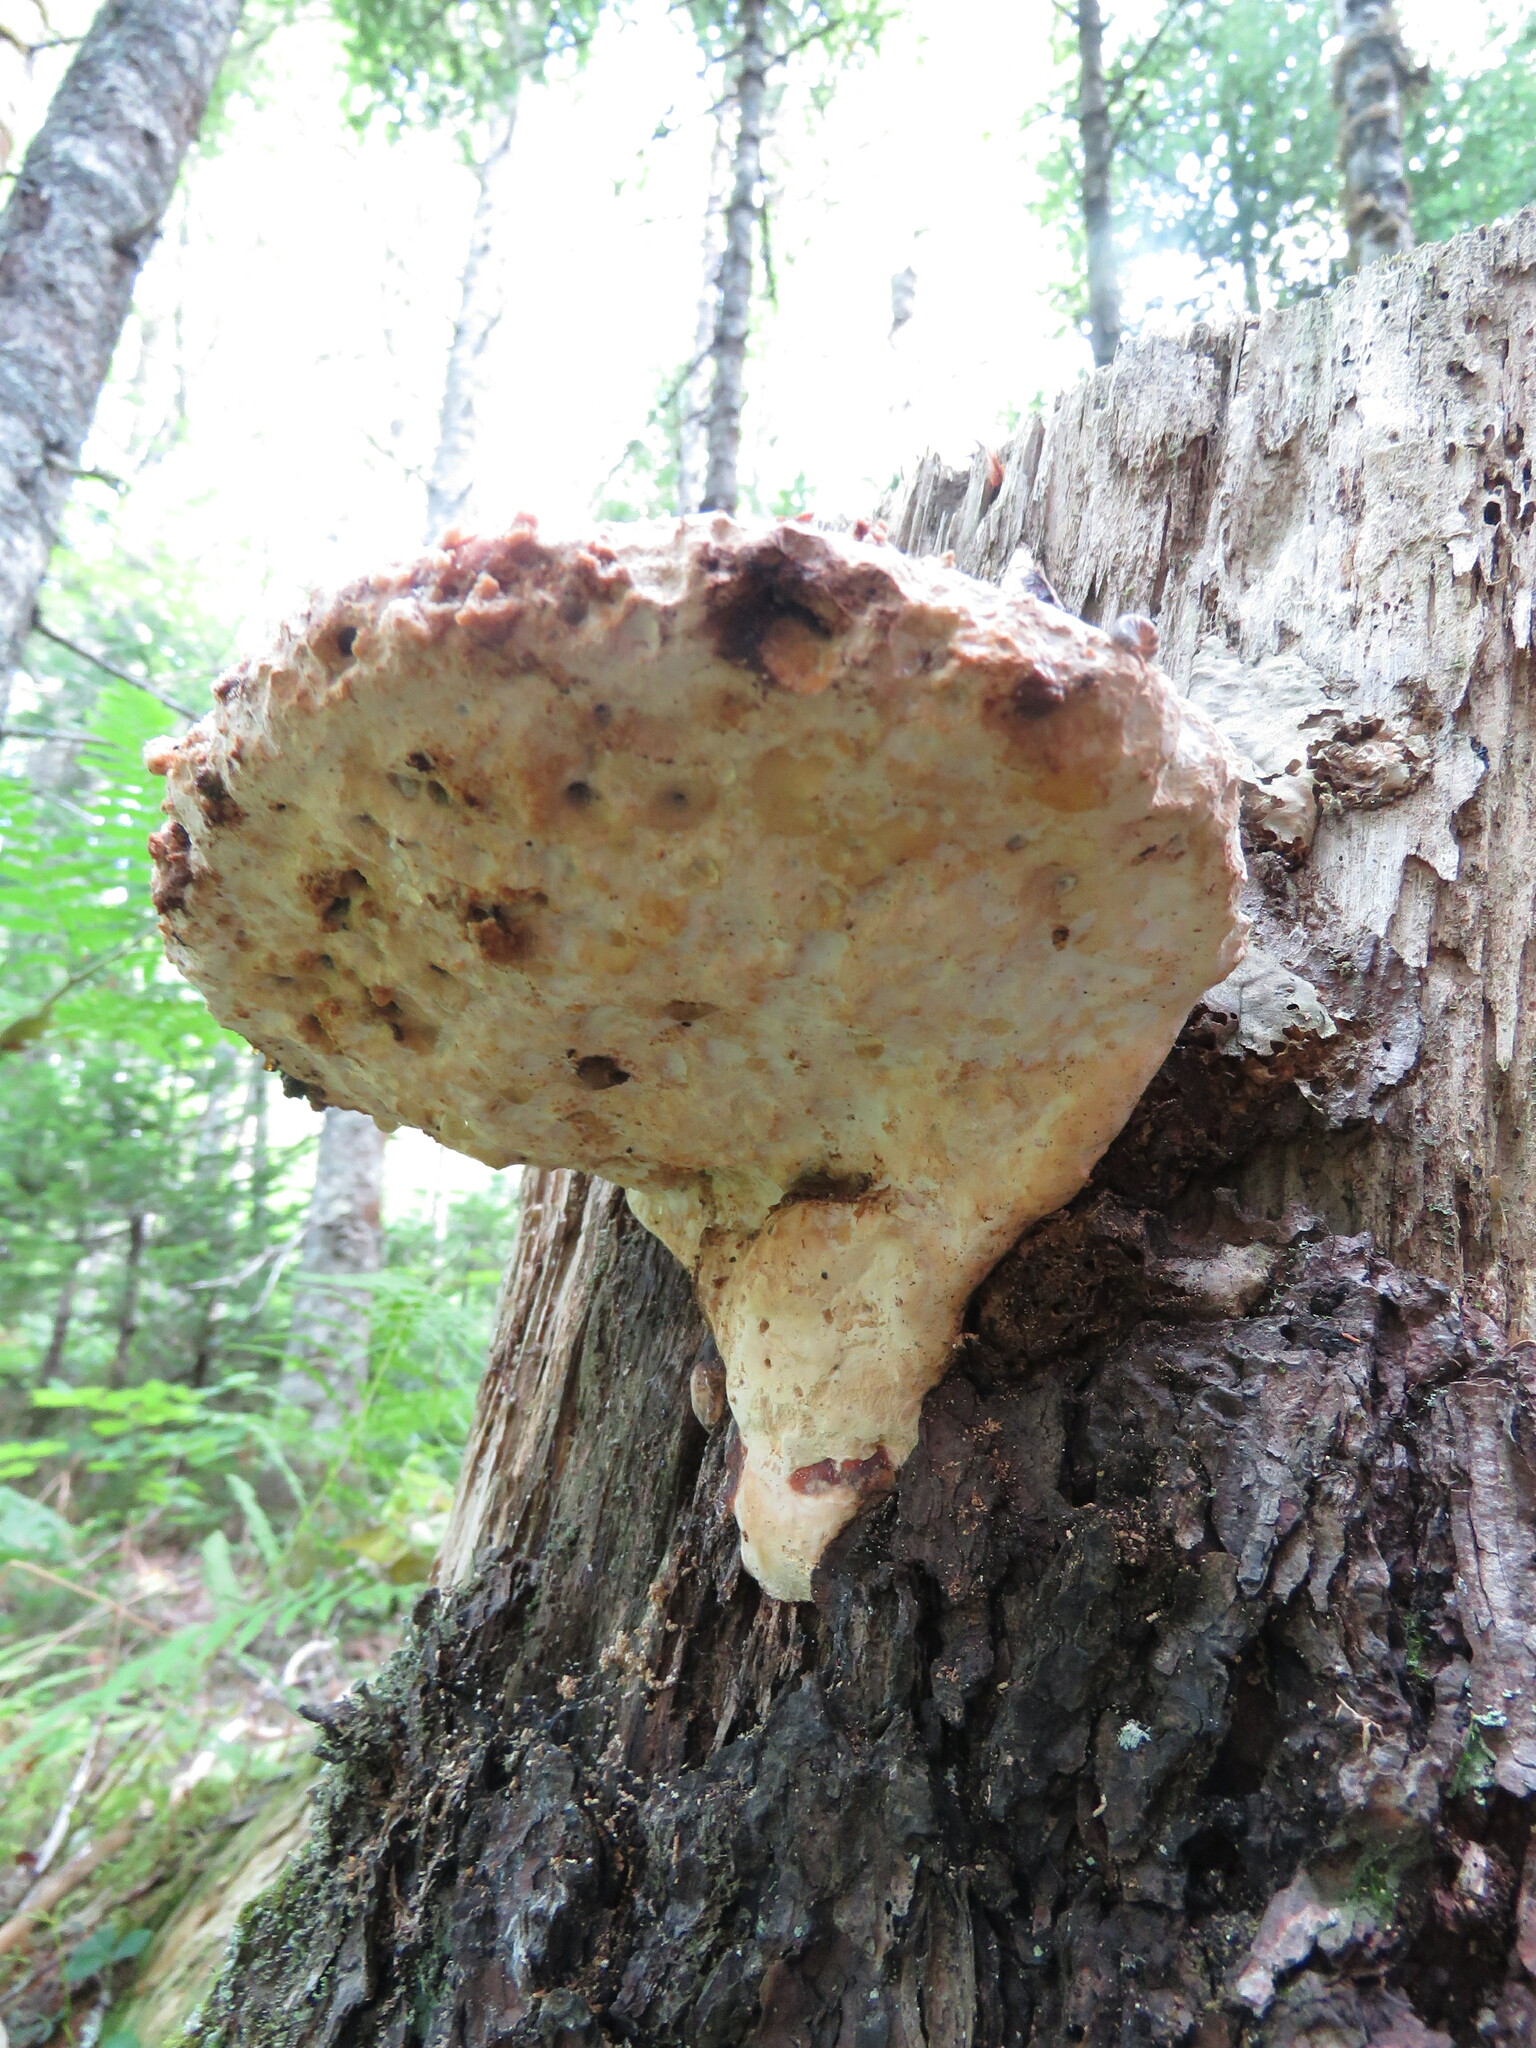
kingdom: Fungi
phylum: Basidiomycota
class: Agaricomycetes
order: Polyporales
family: Fomitopsidaceae
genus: Fomitopsis
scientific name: Fomitopsis mounceae
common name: Northern red belt
